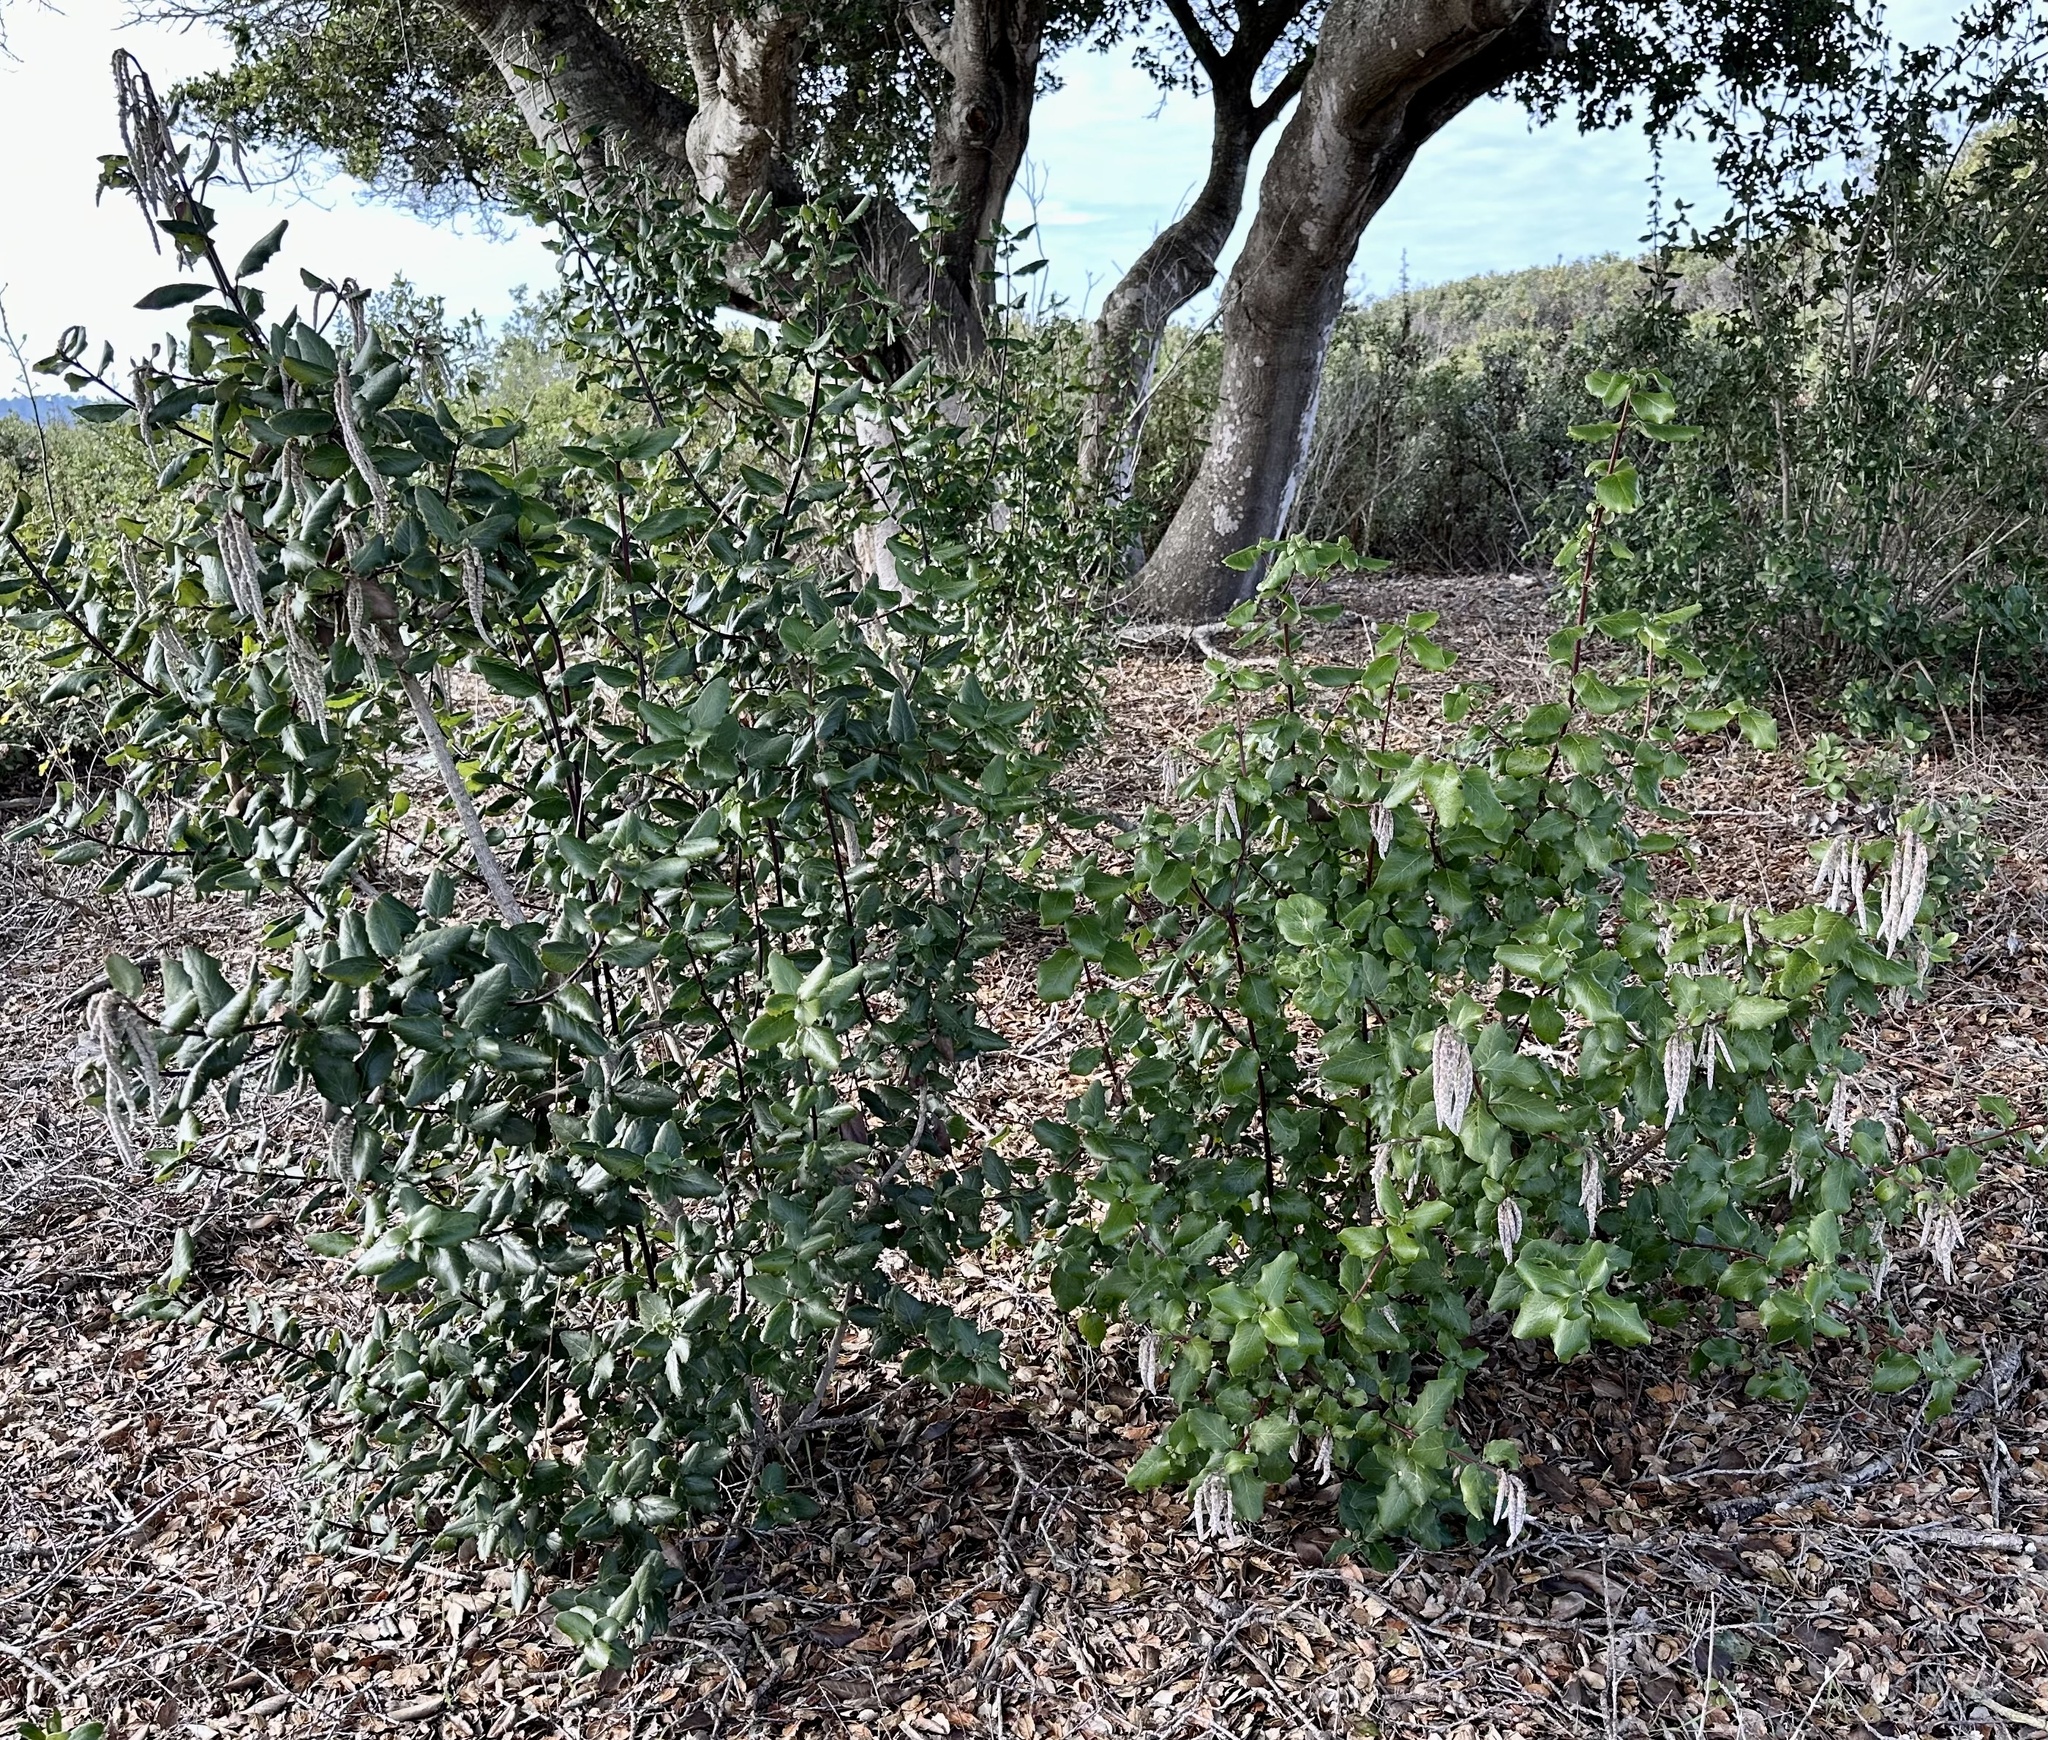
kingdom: Plantae
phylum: Tracheophyta
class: Magnoliopsida
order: Garryales
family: Garryaceae
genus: Garrya
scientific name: Garrya elliptica
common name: Silk-tassel
